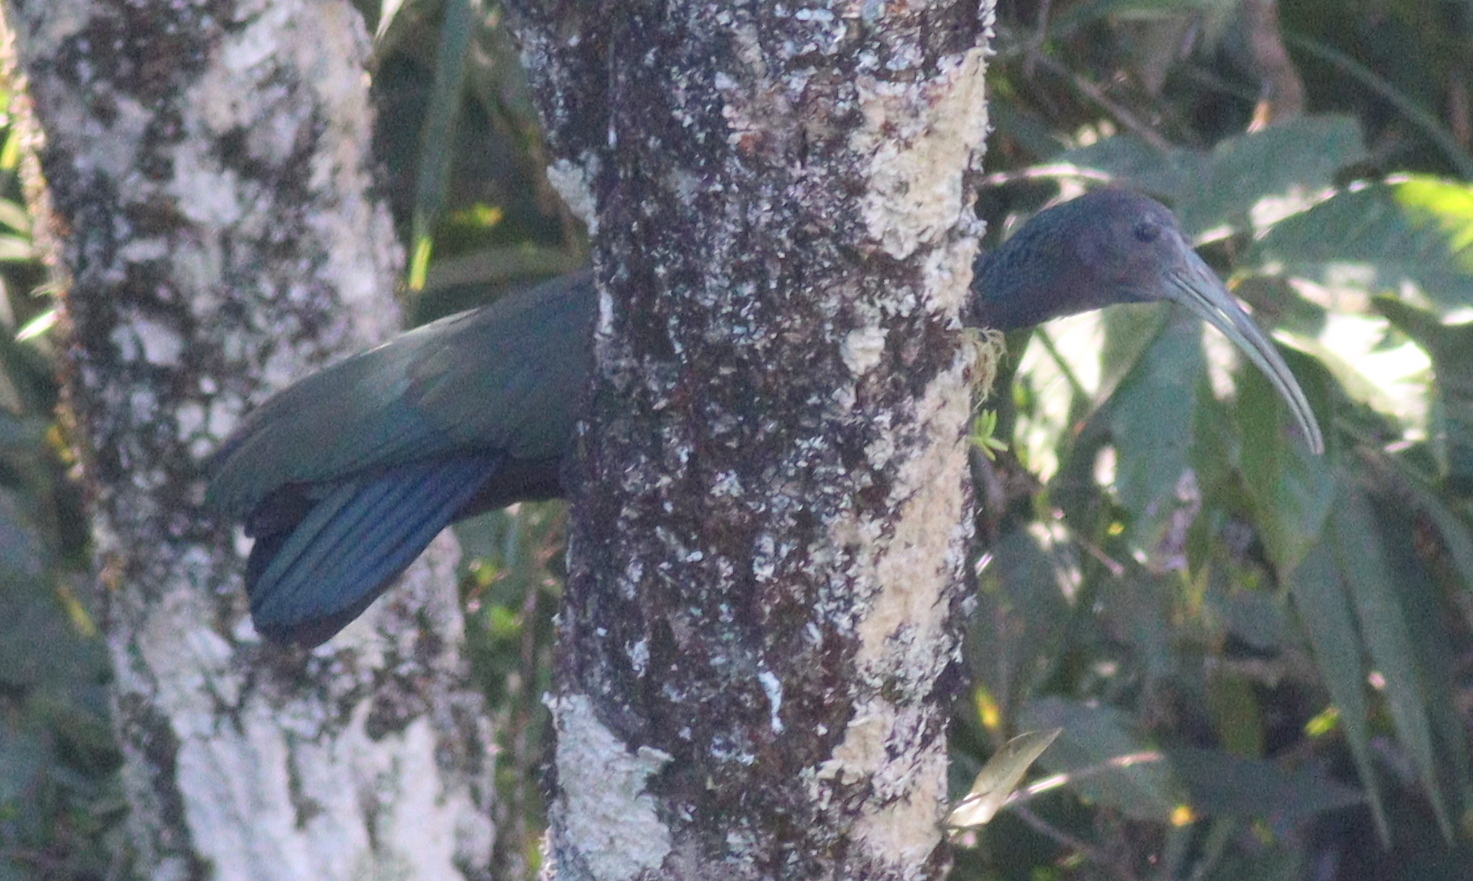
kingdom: Animalia
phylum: Chordata
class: Aves
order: Pelecaniformes
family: Threskiornithidae
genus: Mesembrinibis
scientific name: Mesembrinibis cayennensis
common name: Green ibis
